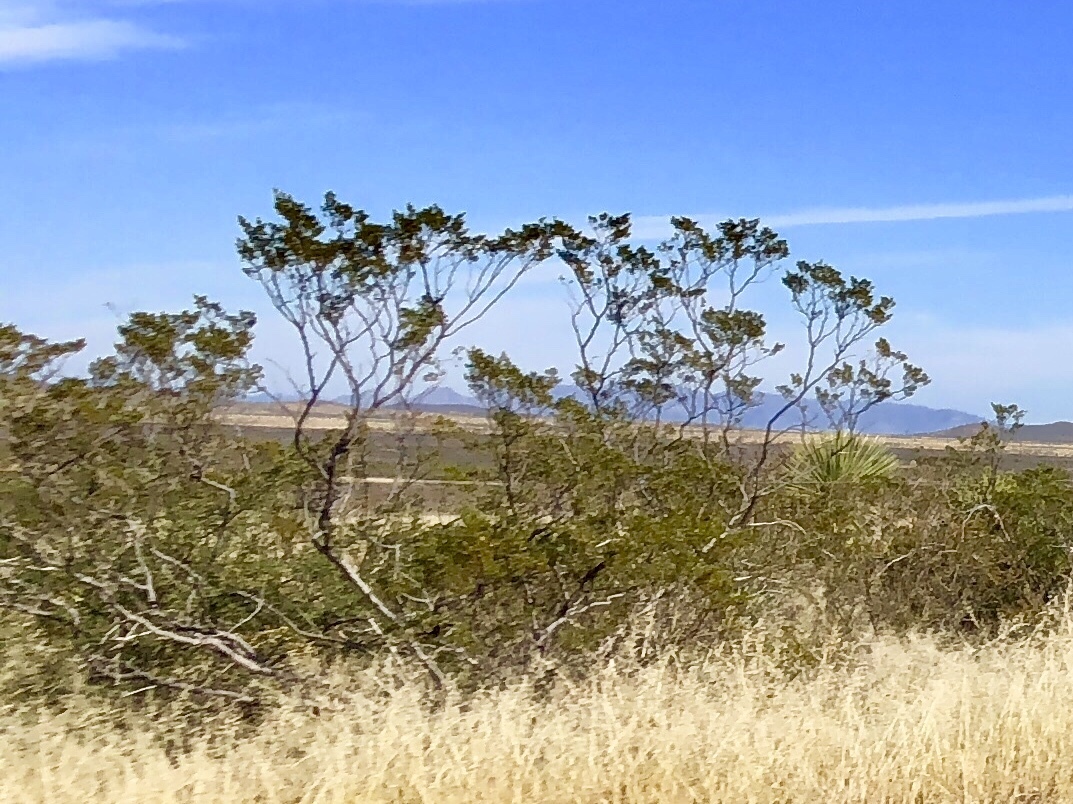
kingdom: Plantae
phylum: Tracheophyta
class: Magnoliopsida
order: Zygophyllales
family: Zygophyllaceae
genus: Larrea
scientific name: Larrea tridentata
